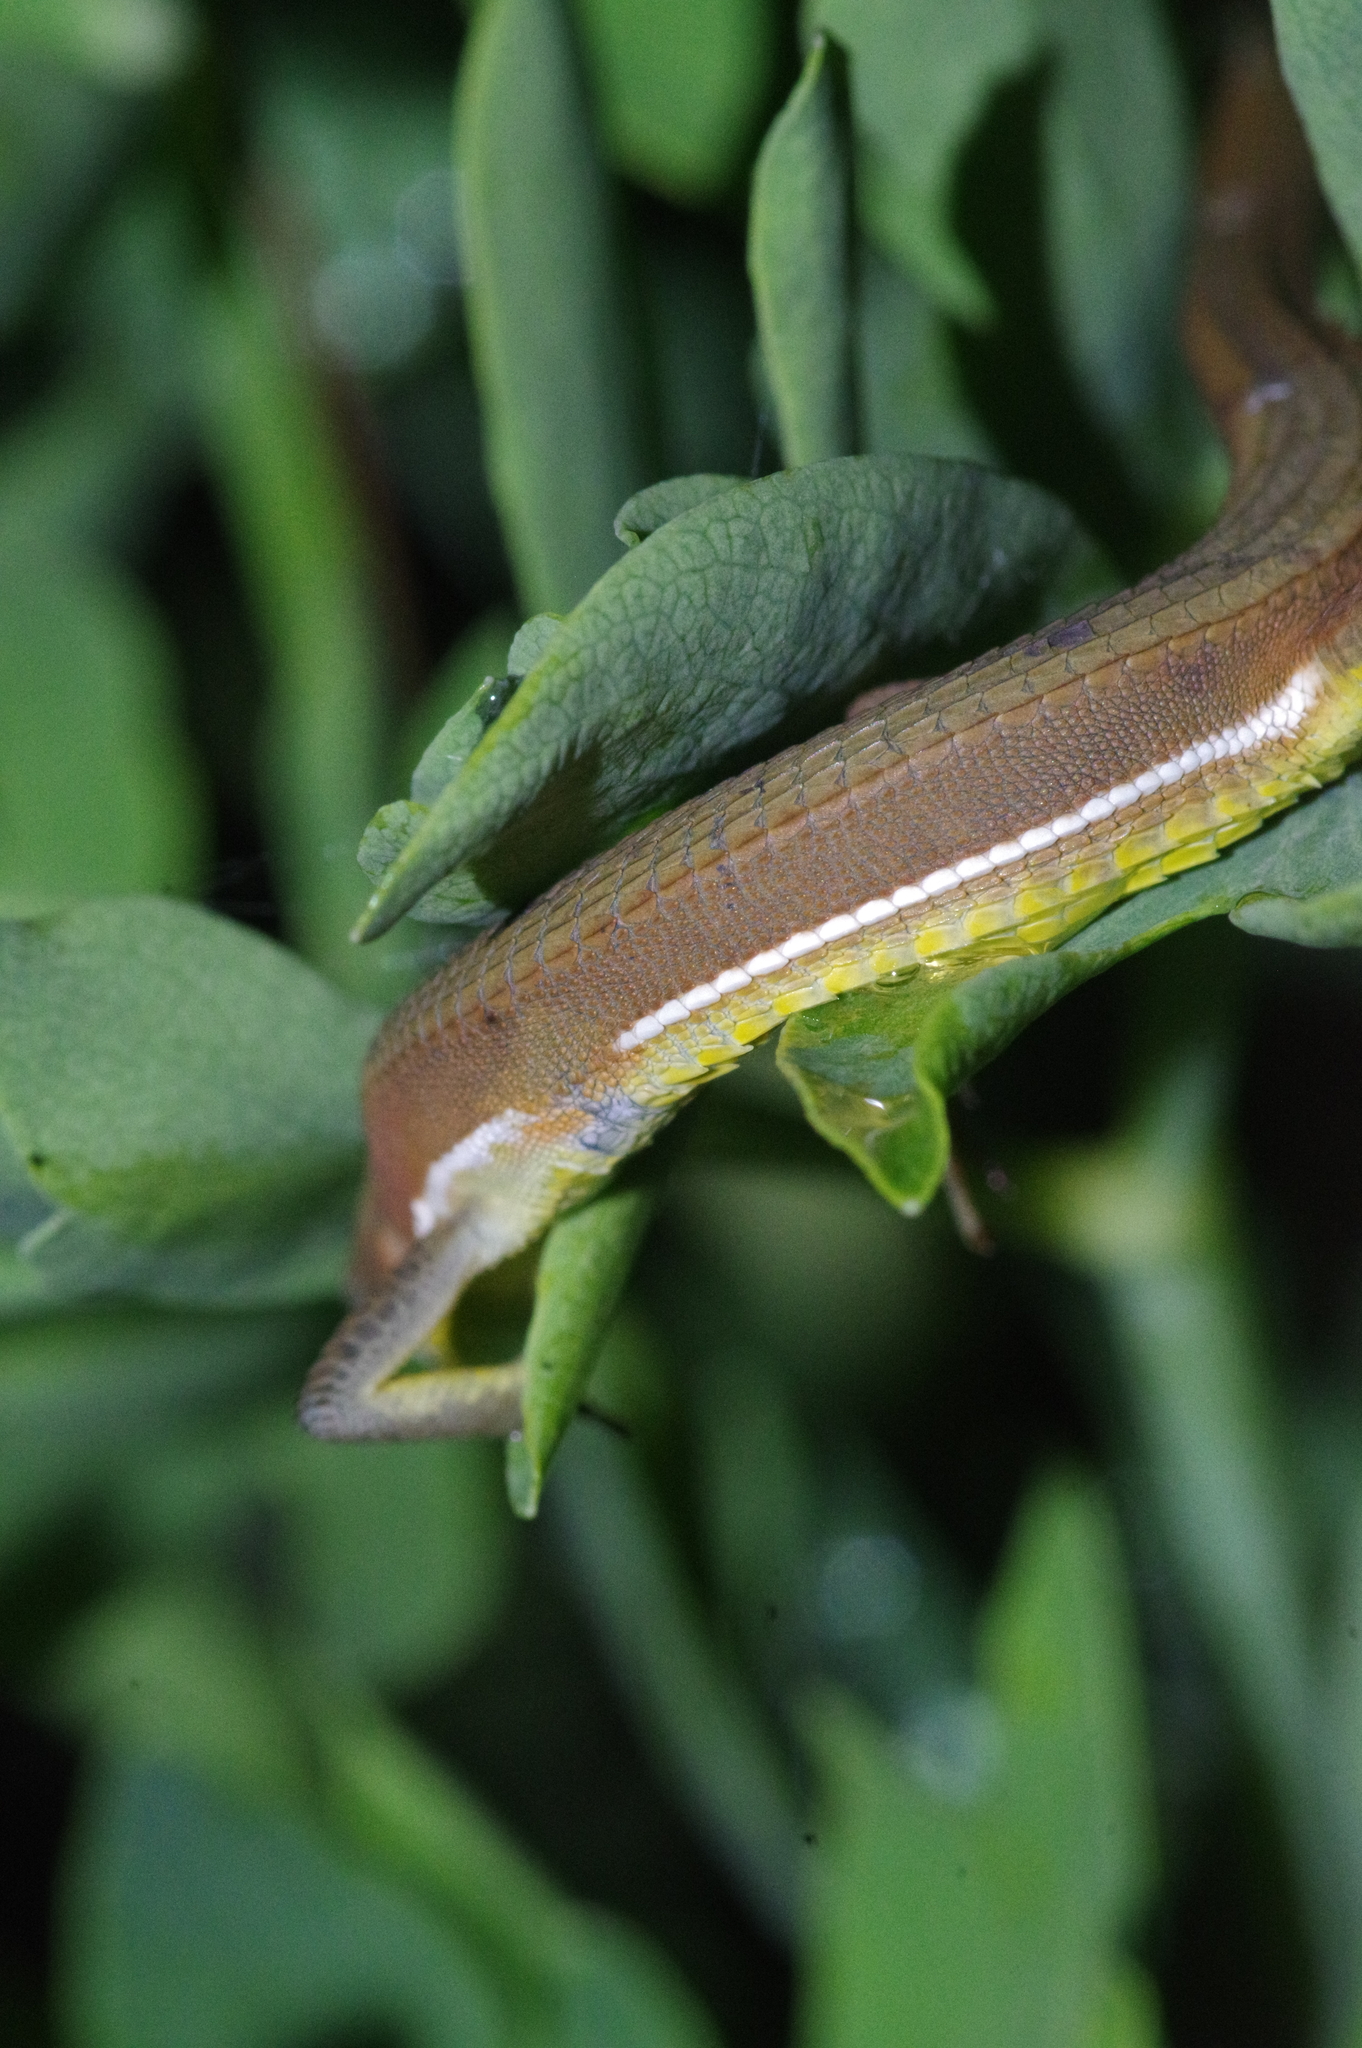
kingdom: Animalia
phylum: Chordata
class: Squamata
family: Lacertidae
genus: Takydromus
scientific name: Takydromus smaragdinus
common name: Green grass lizard
